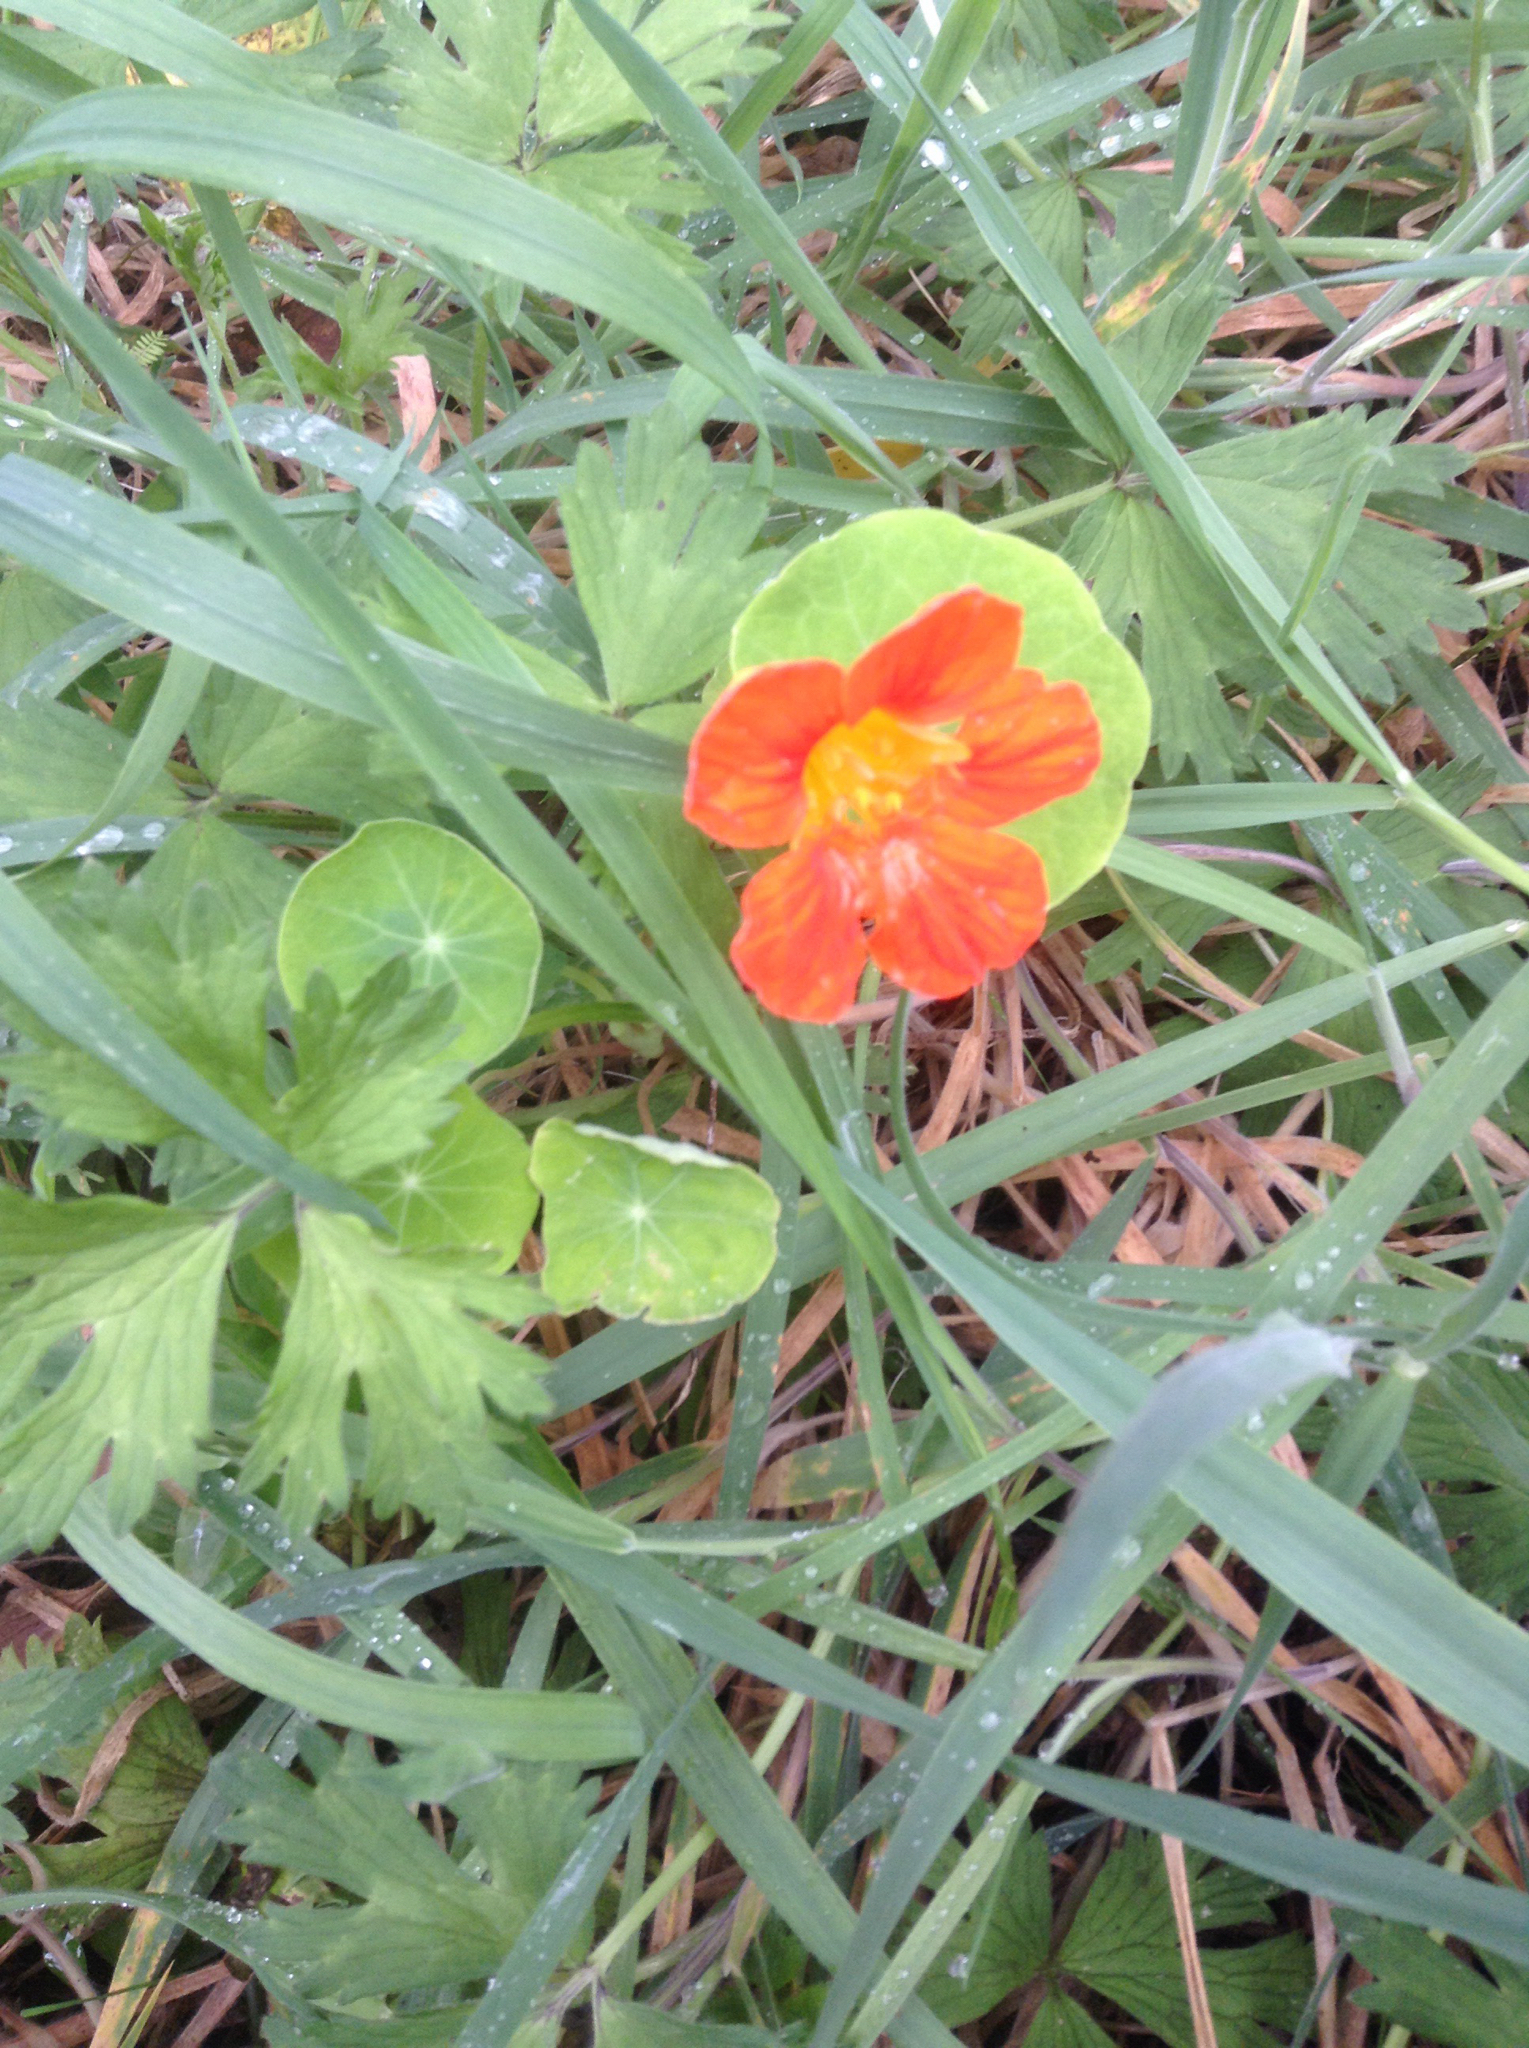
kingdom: Plantae
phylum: Tracheophyta
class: Magnoliopsida
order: Brassicales
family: Tropaeolaceae
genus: Tropaeolum
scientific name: Tropaeolum majus
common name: Nasturtium
